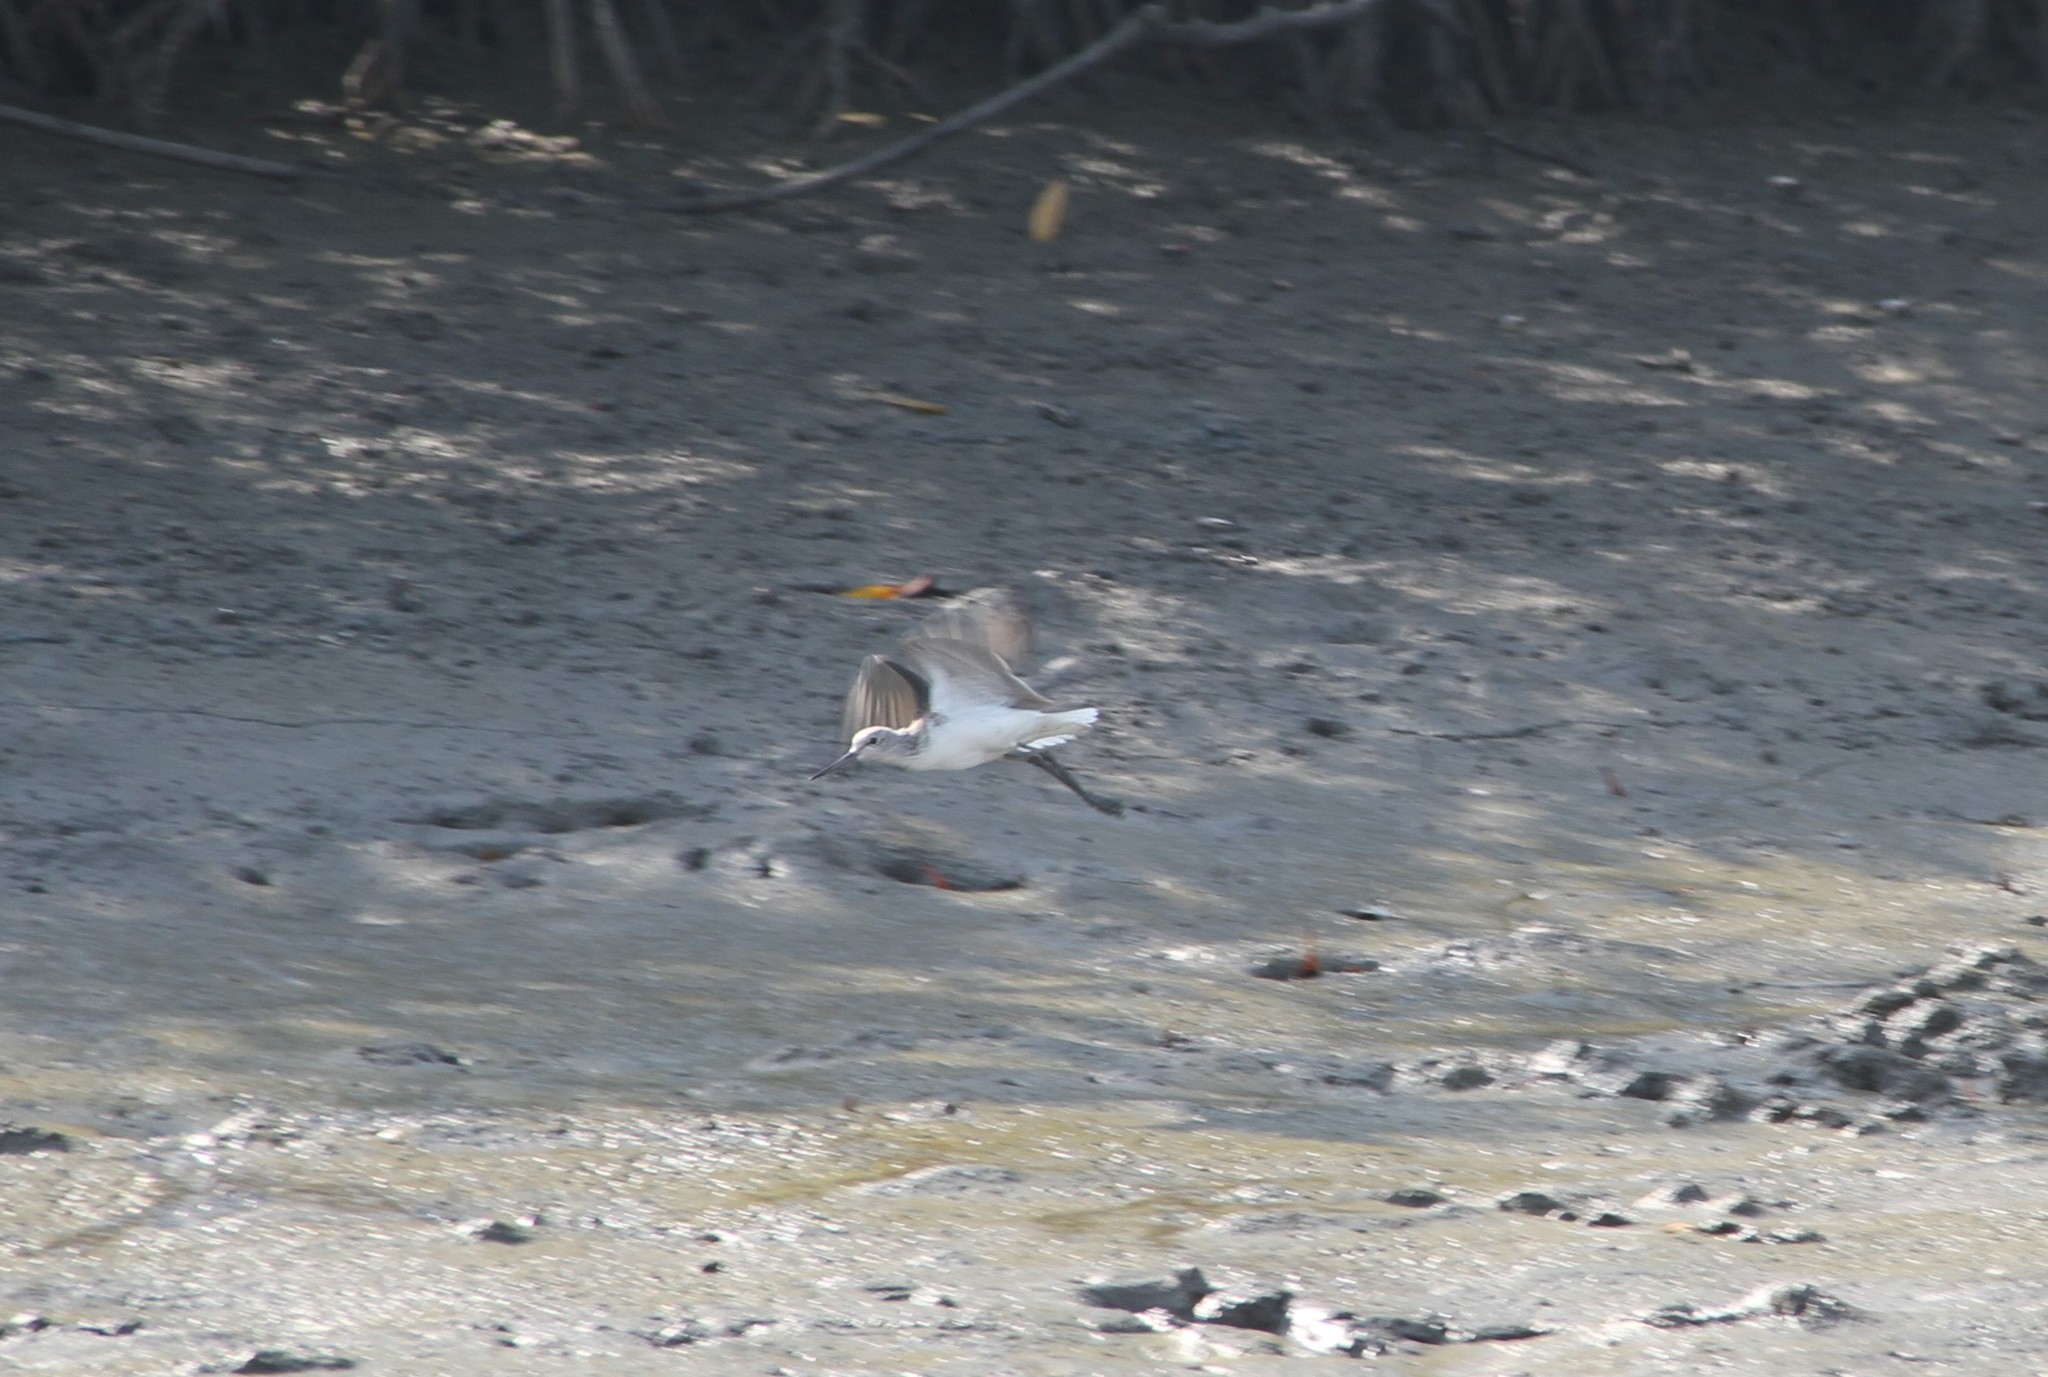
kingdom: Animalia
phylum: Chordata
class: Aves
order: Charadriiformes
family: Scolopacidae
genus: Tringa
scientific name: Tringa nebularia
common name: Common greenshank
